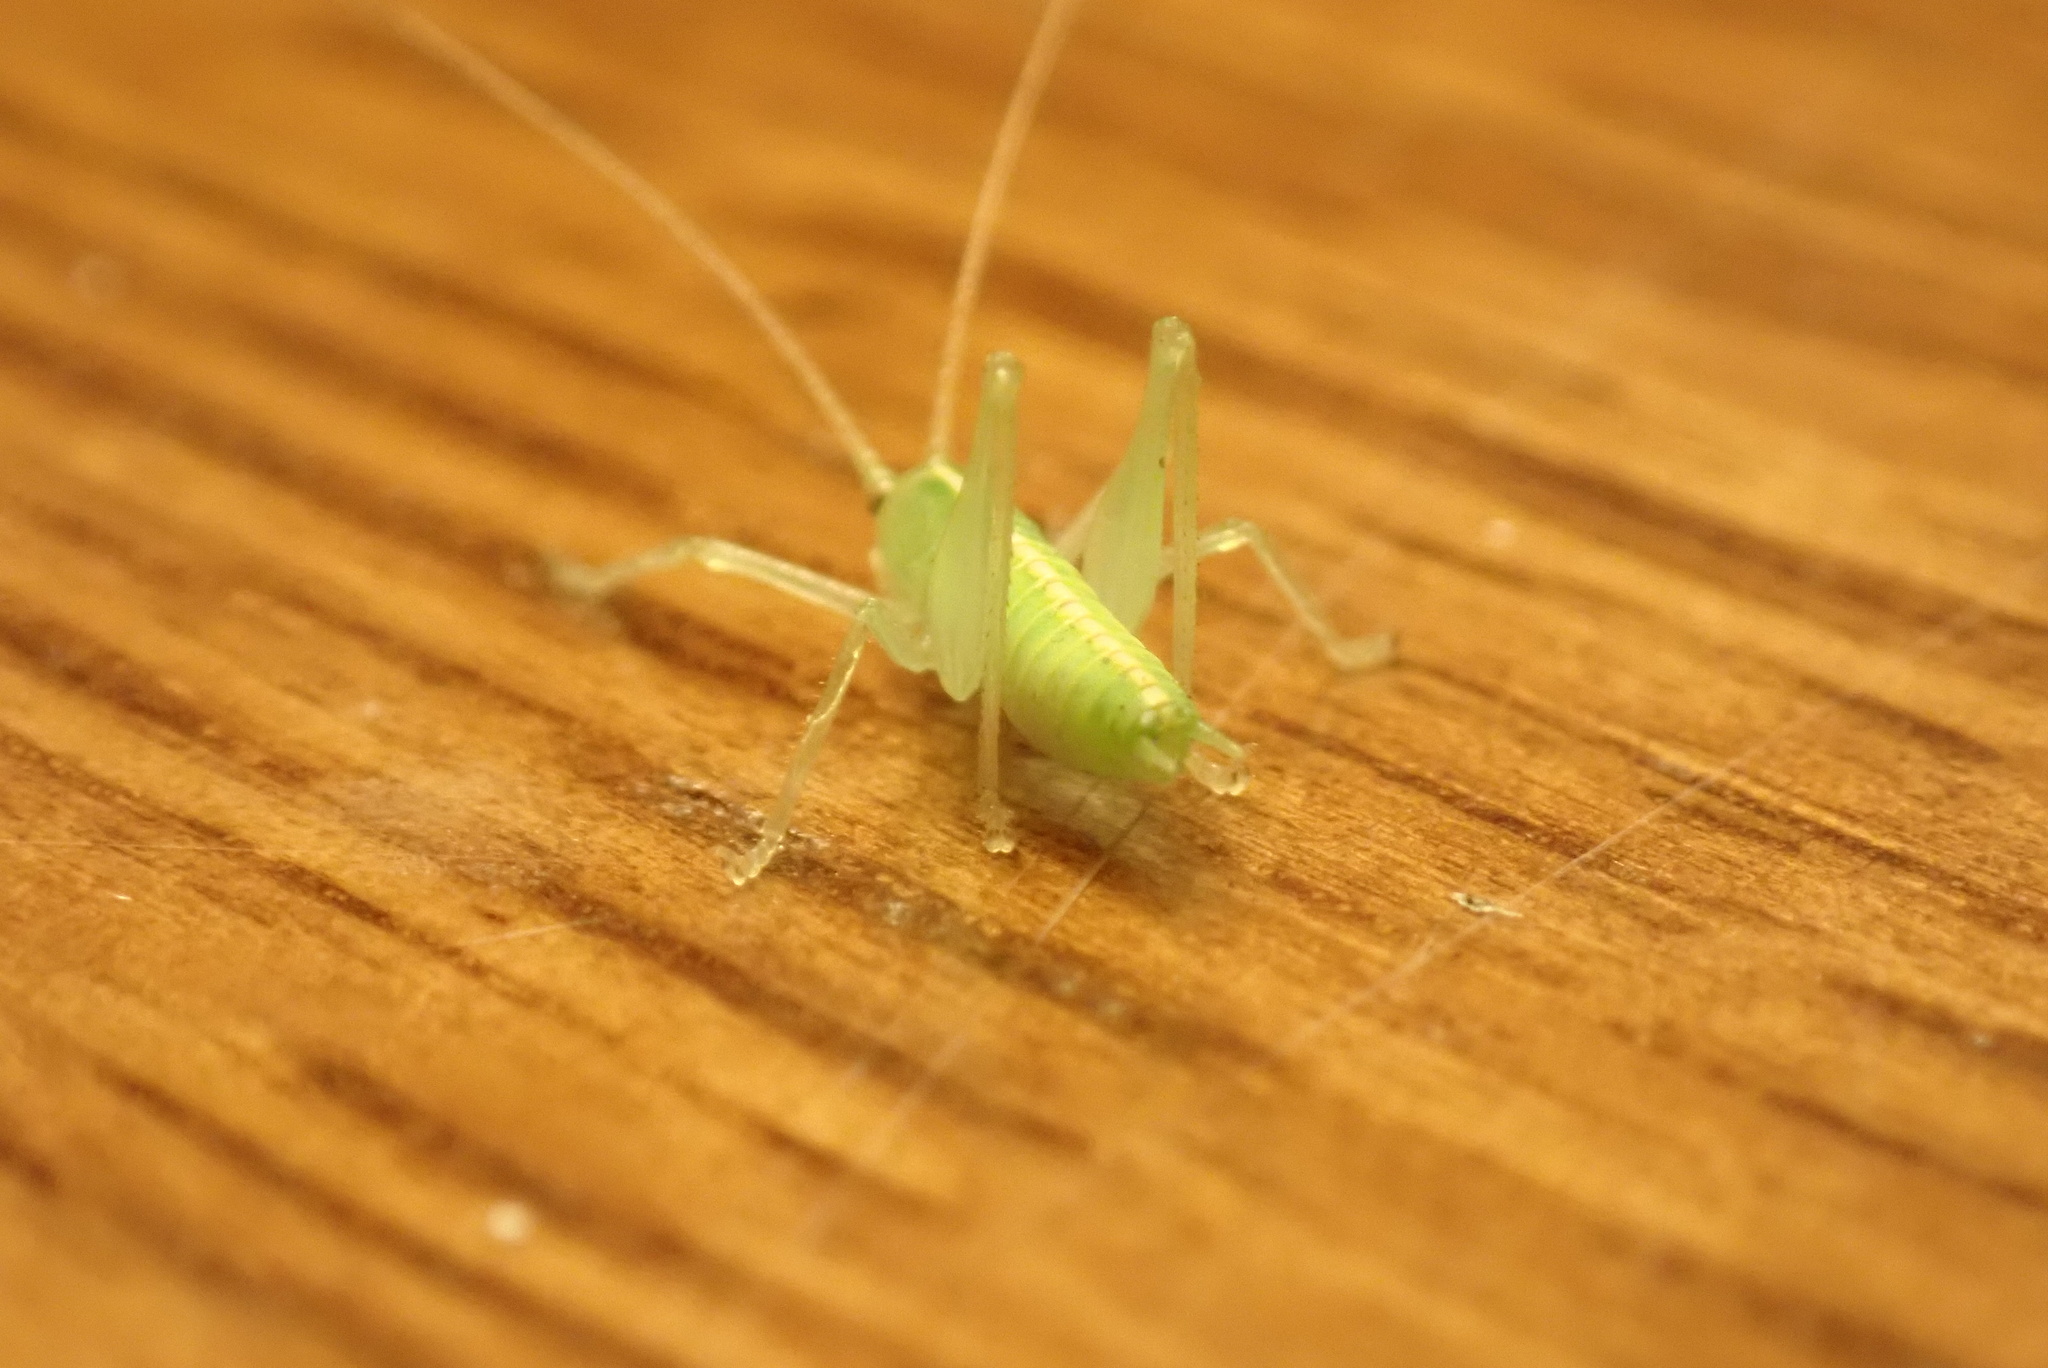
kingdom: Animalia
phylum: Arthropoda
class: Insecta
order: Orthoptera
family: Tettigoniidae
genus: Meconema
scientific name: Meconema meridionale
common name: Southern oak bush-cricket
